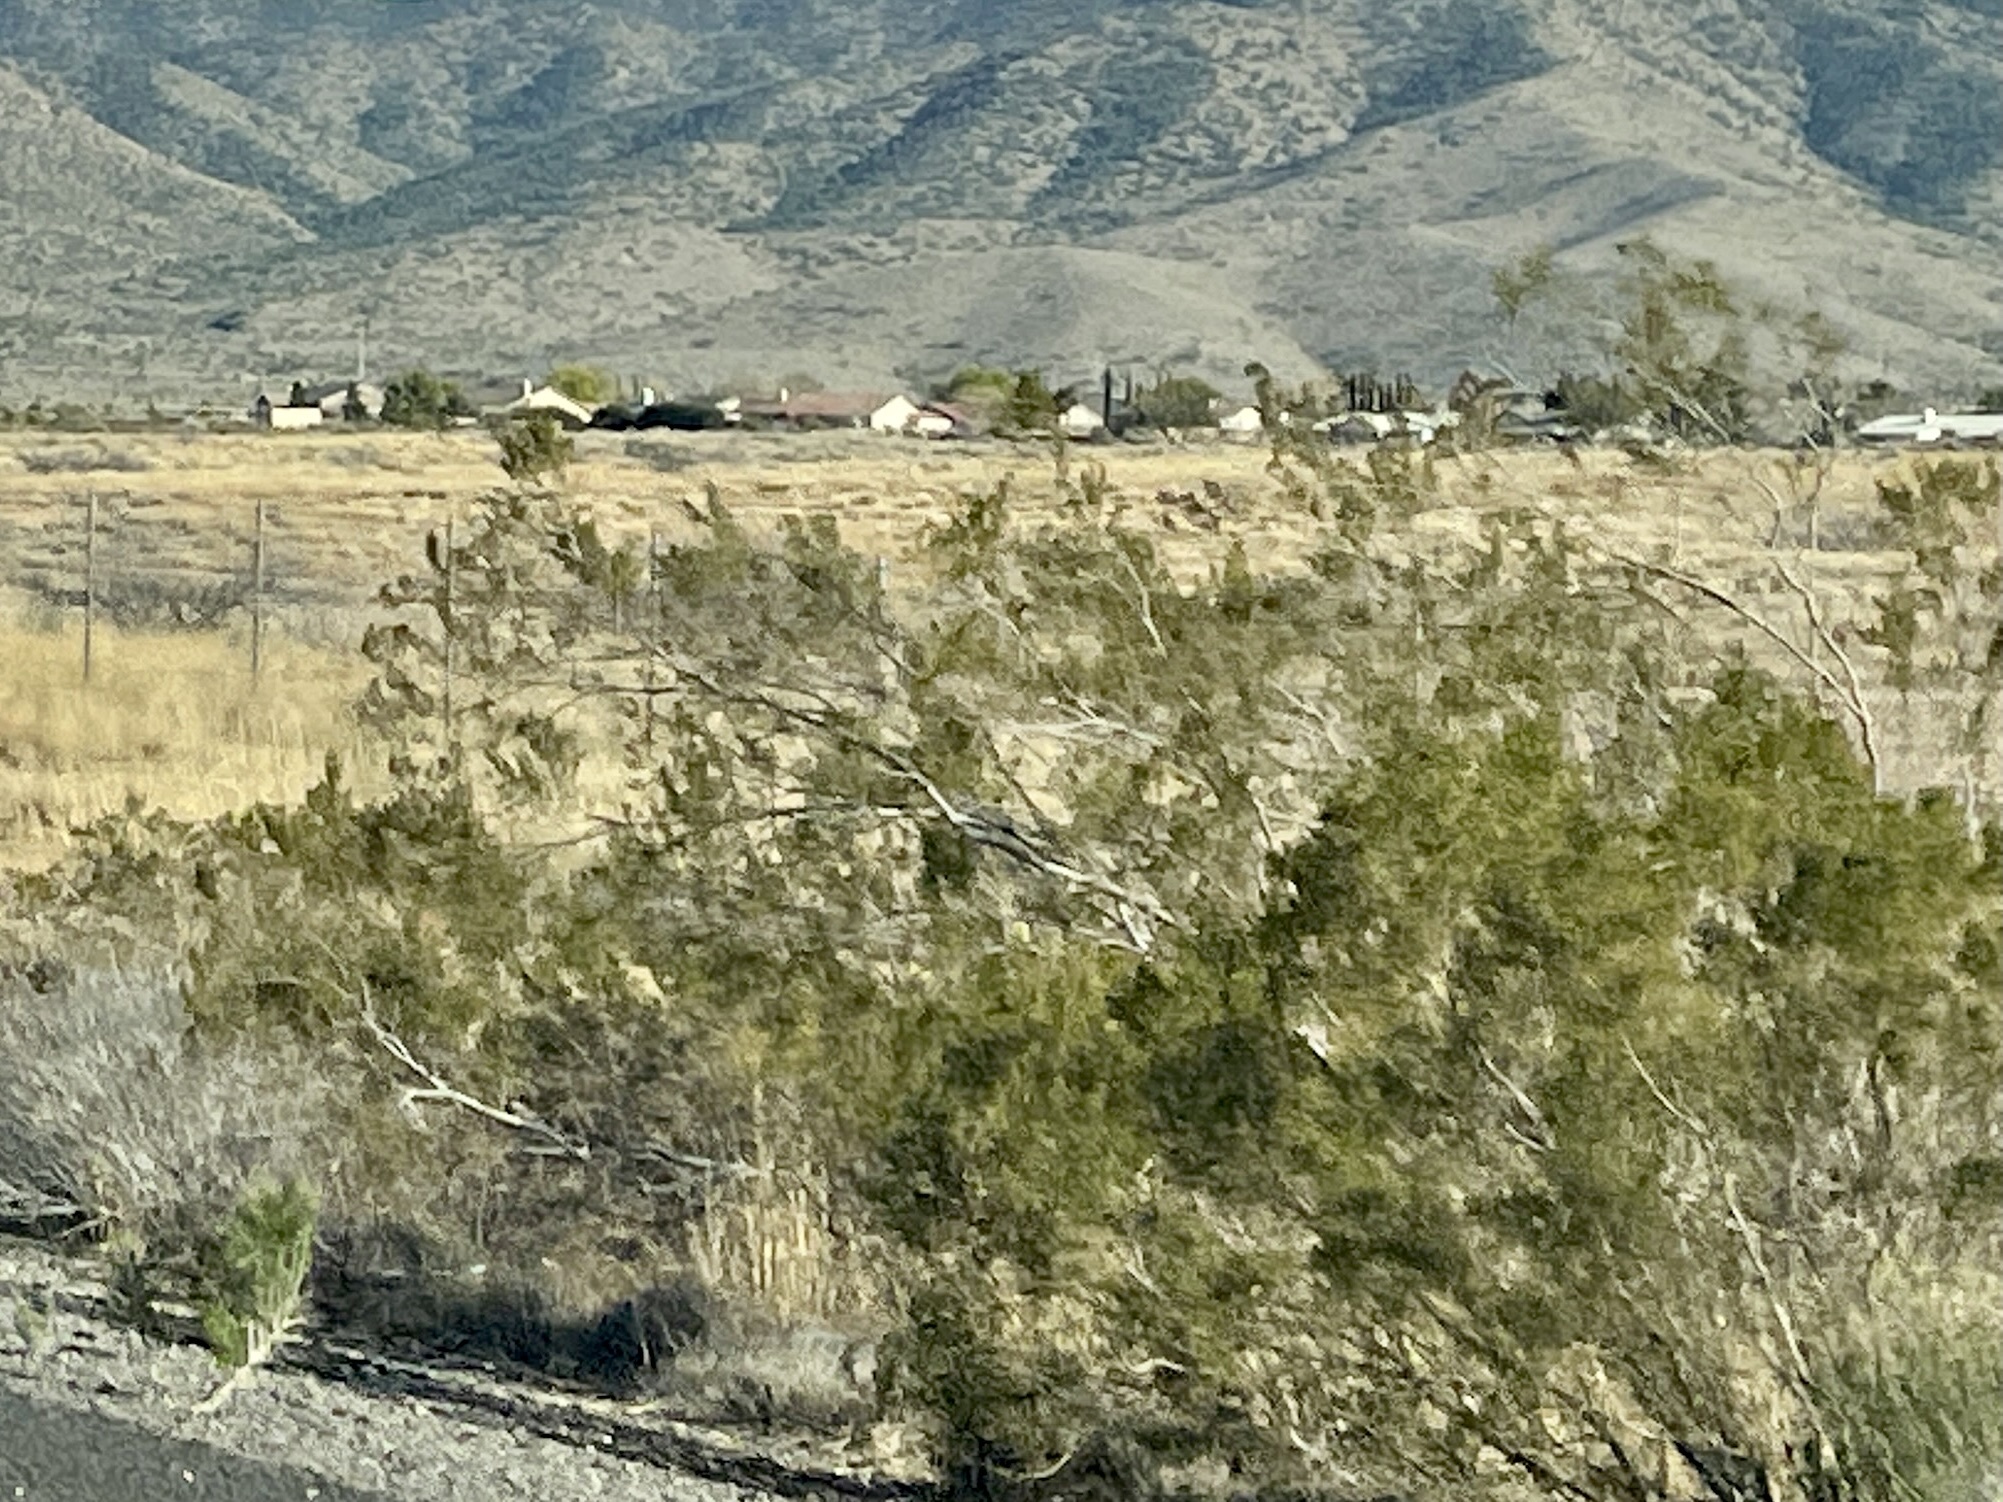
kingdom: Plantae
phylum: Tracheophyta
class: Magnoliopsida
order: Zygophyllales
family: Zygophyllaceae
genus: Larrea
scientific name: Larrea tridentata
